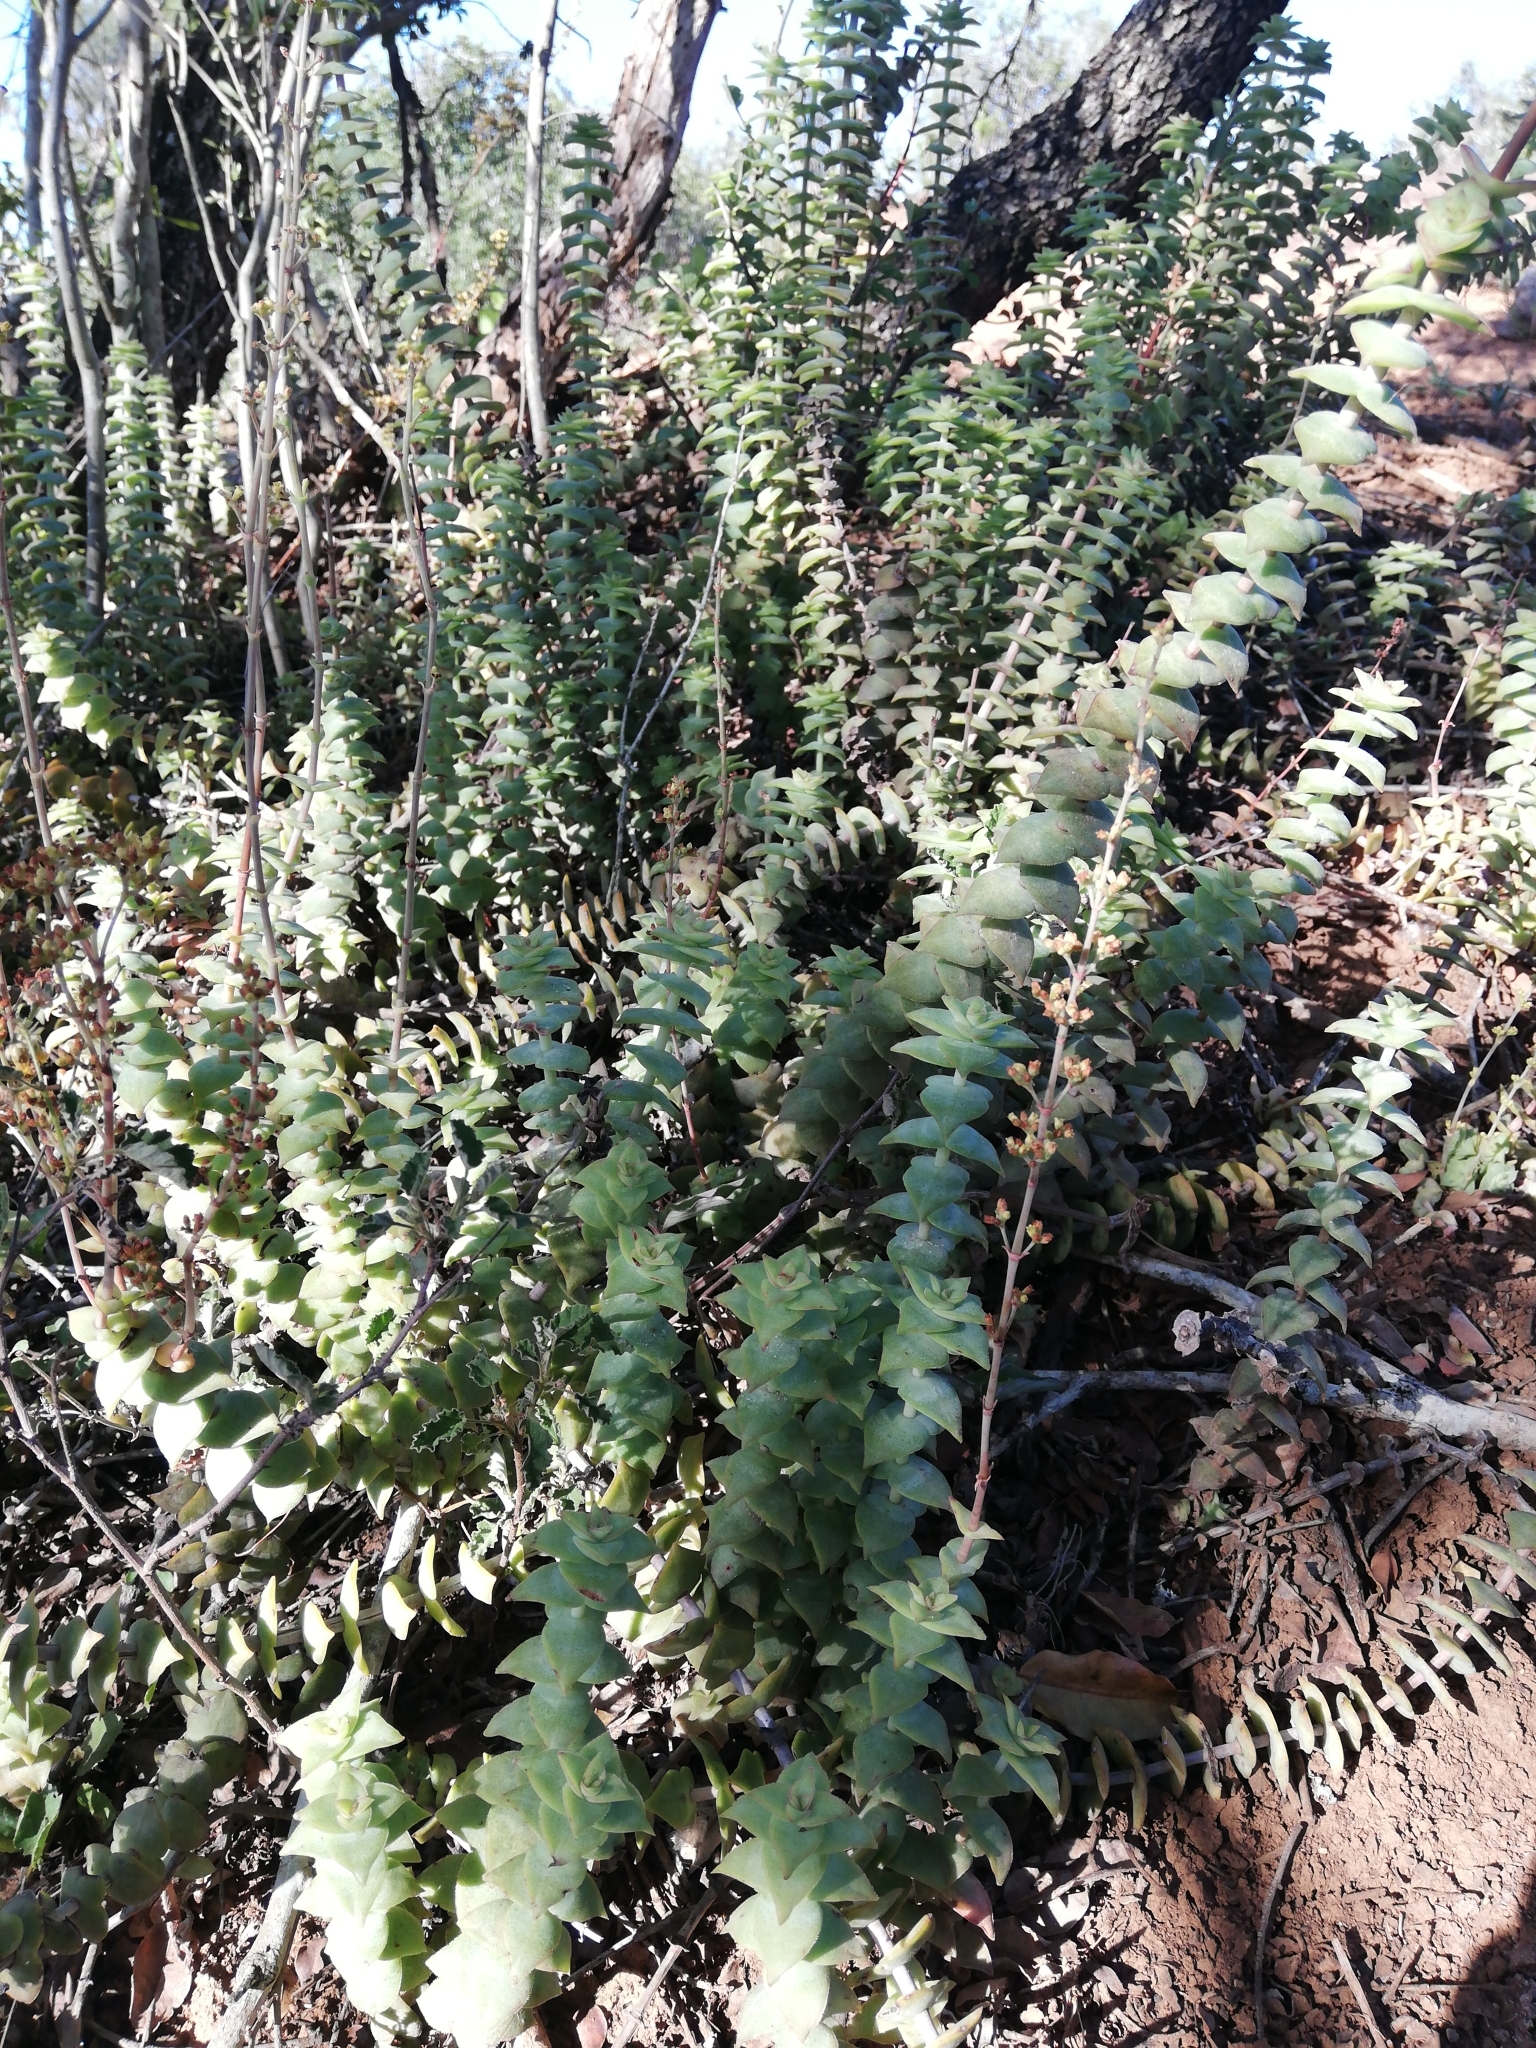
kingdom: Plantae
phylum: Tracheophyta
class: Magnoliopsida
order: Saxifragales
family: Crassulaceae
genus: Crassula
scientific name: Crassula perforata
